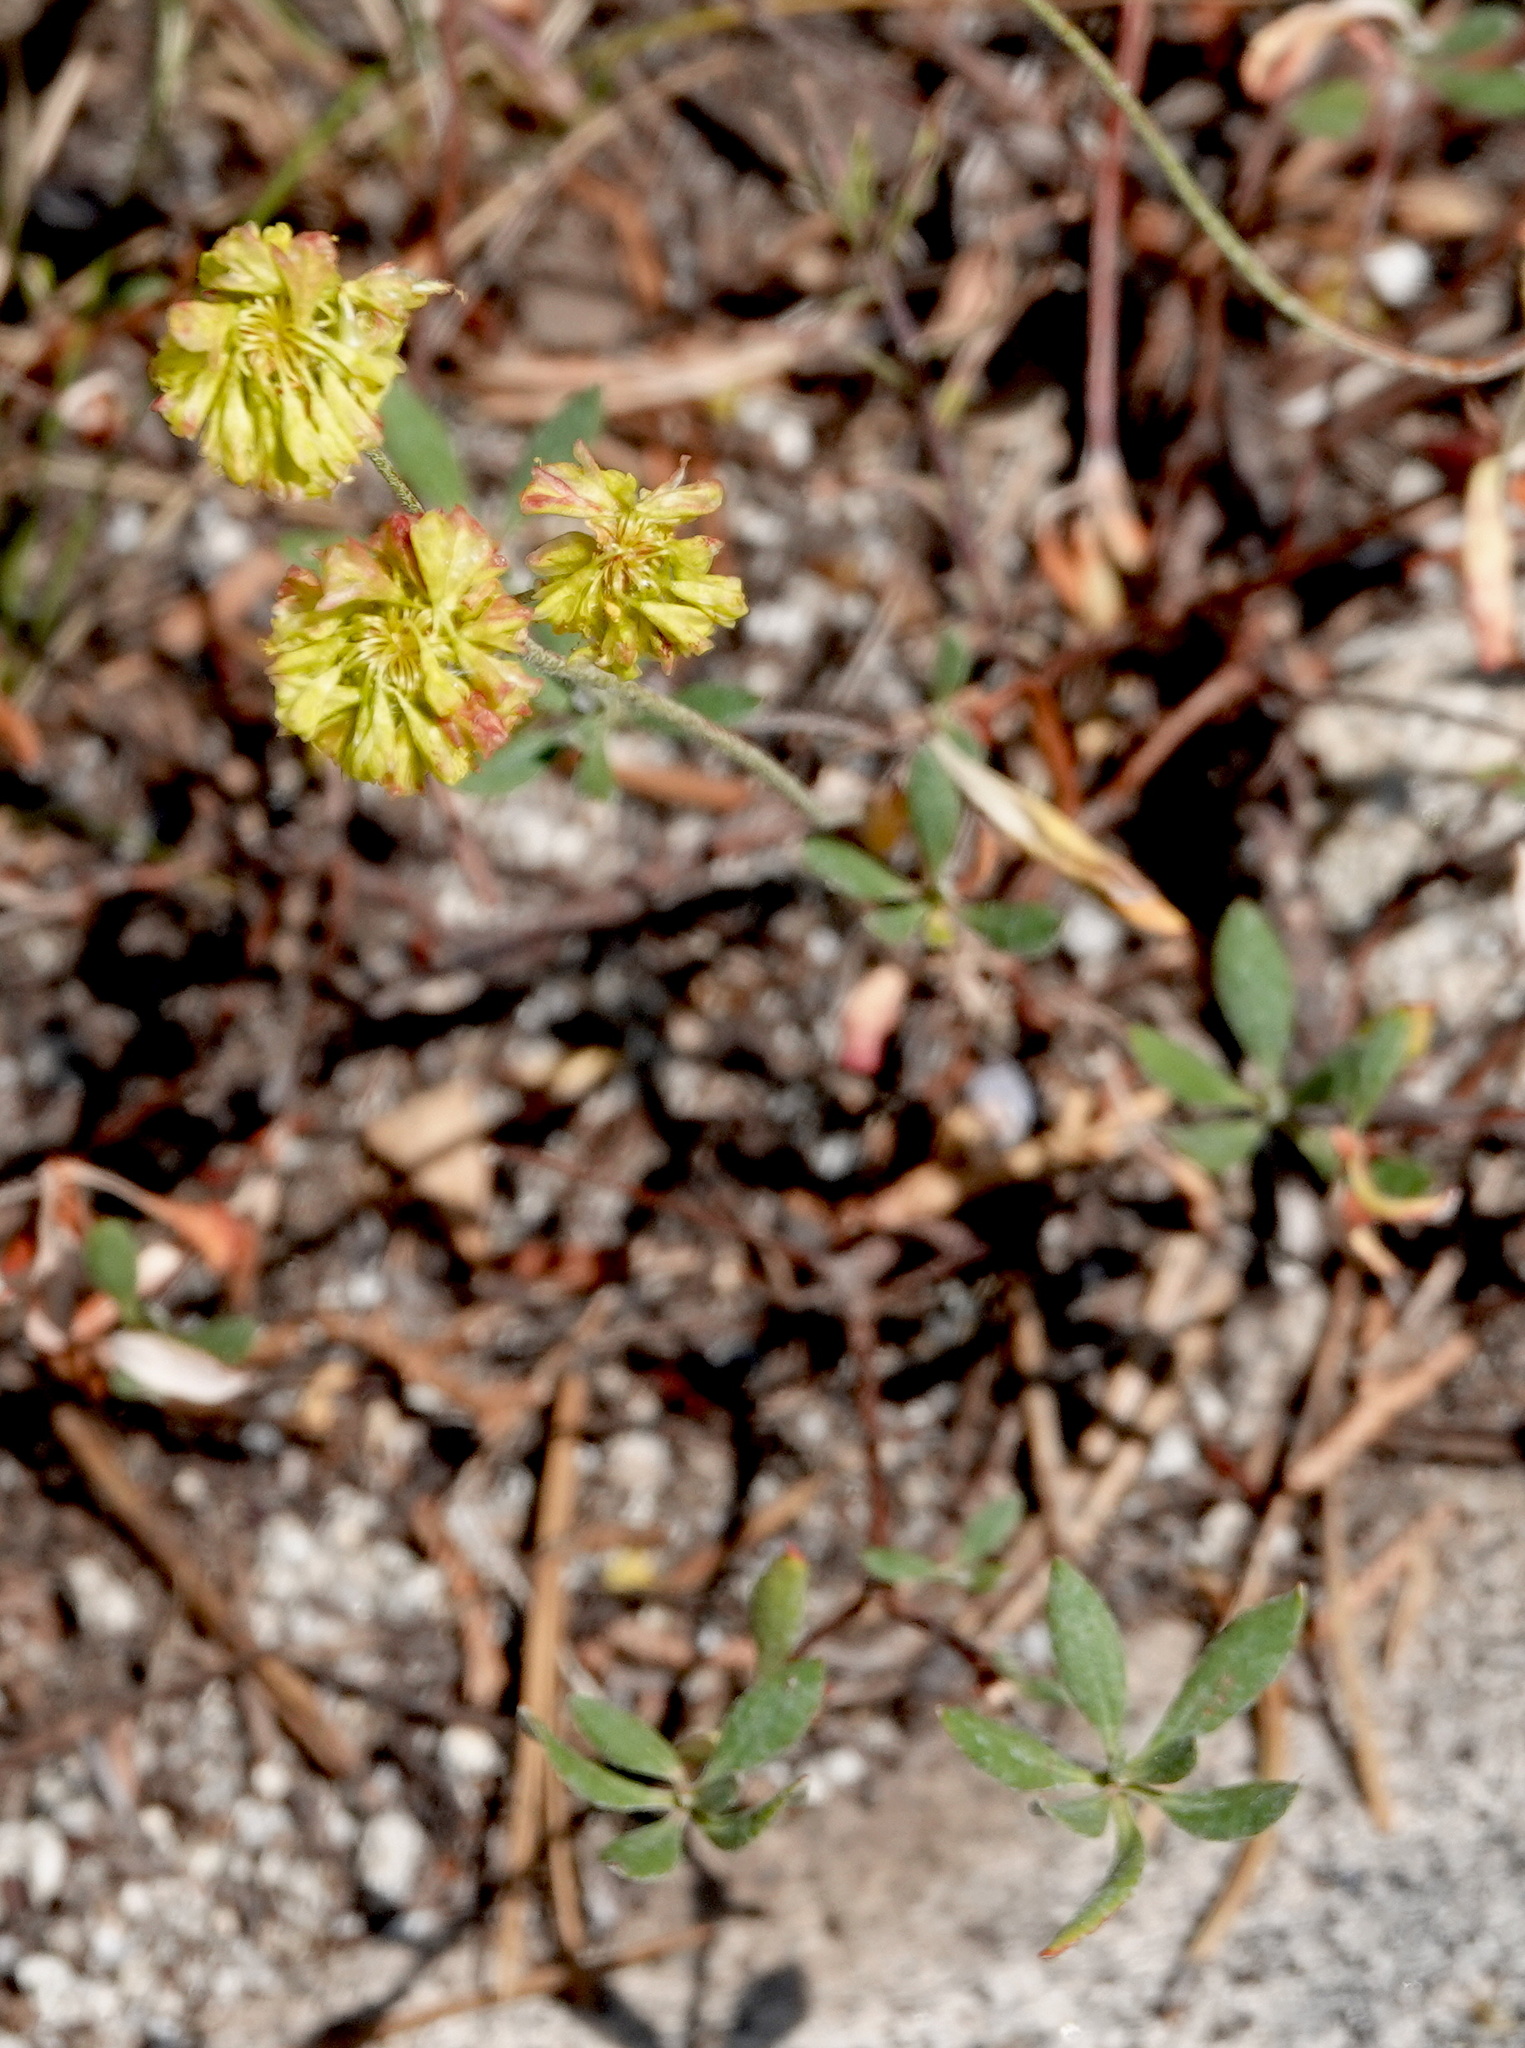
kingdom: Plantae
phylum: Tracheophyta
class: Magnoliopsida
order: Caryophyllales
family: Polygonaceae
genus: Eriogonum
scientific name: Eriogonum umbellatum
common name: Sulfur-buckwheat
